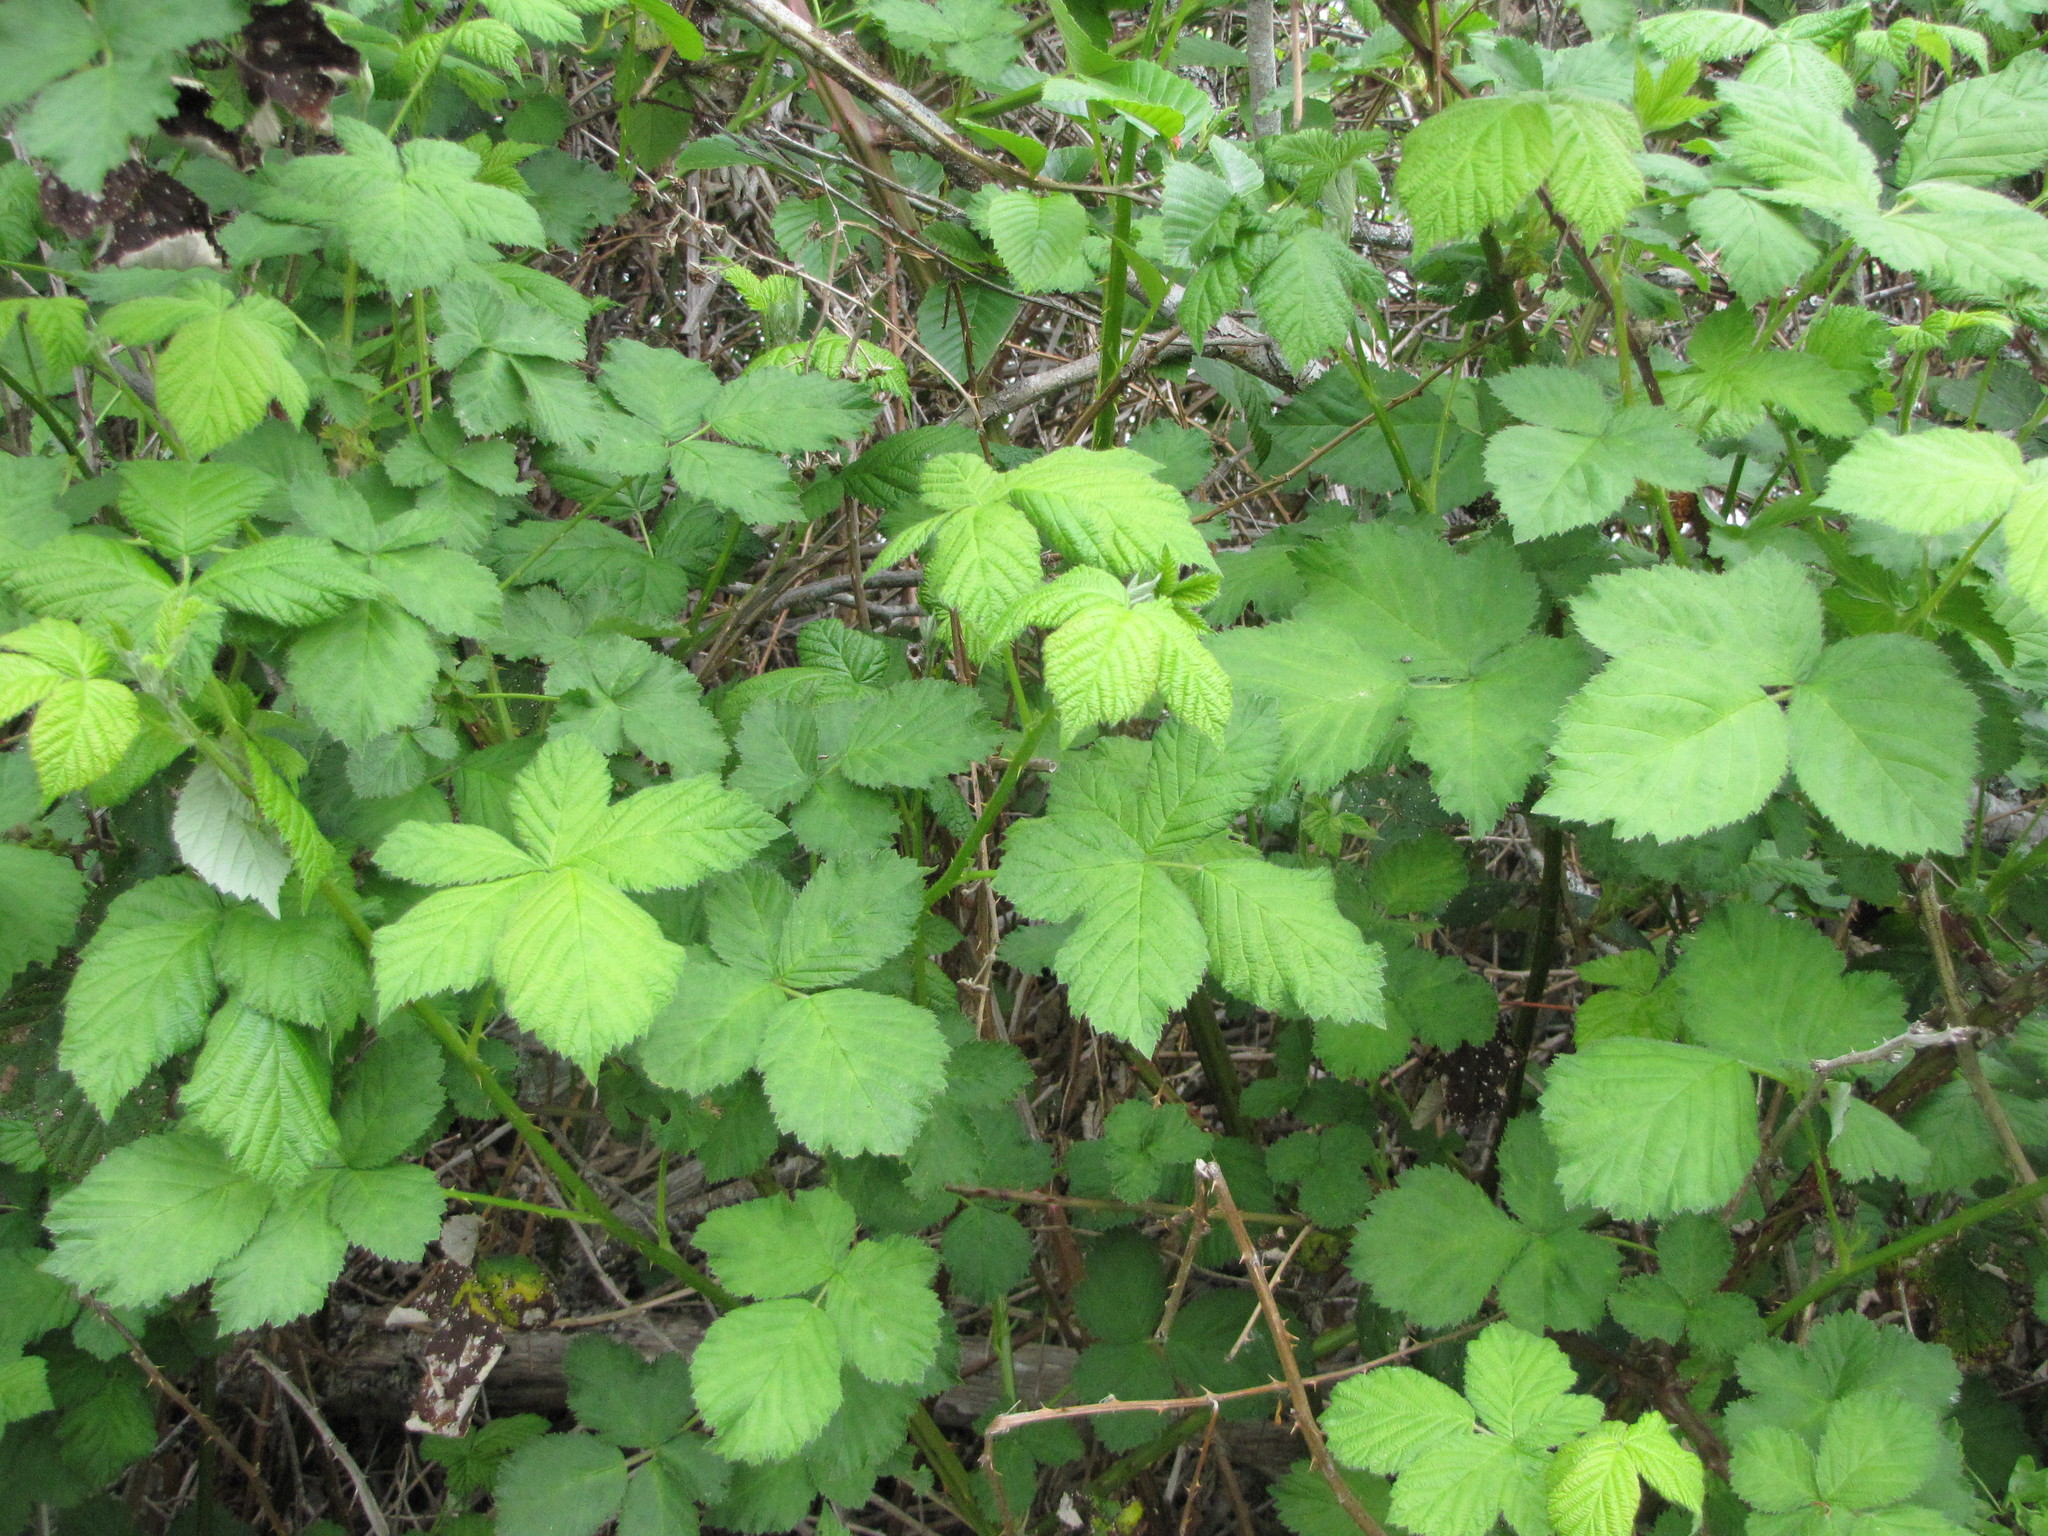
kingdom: Plantae
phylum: Tracheophyta
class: Magnoliopsida
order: Rosales
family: Rosaceae
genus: Rubus
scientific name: Rubus armeniacus
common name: Himalayan blackberry
